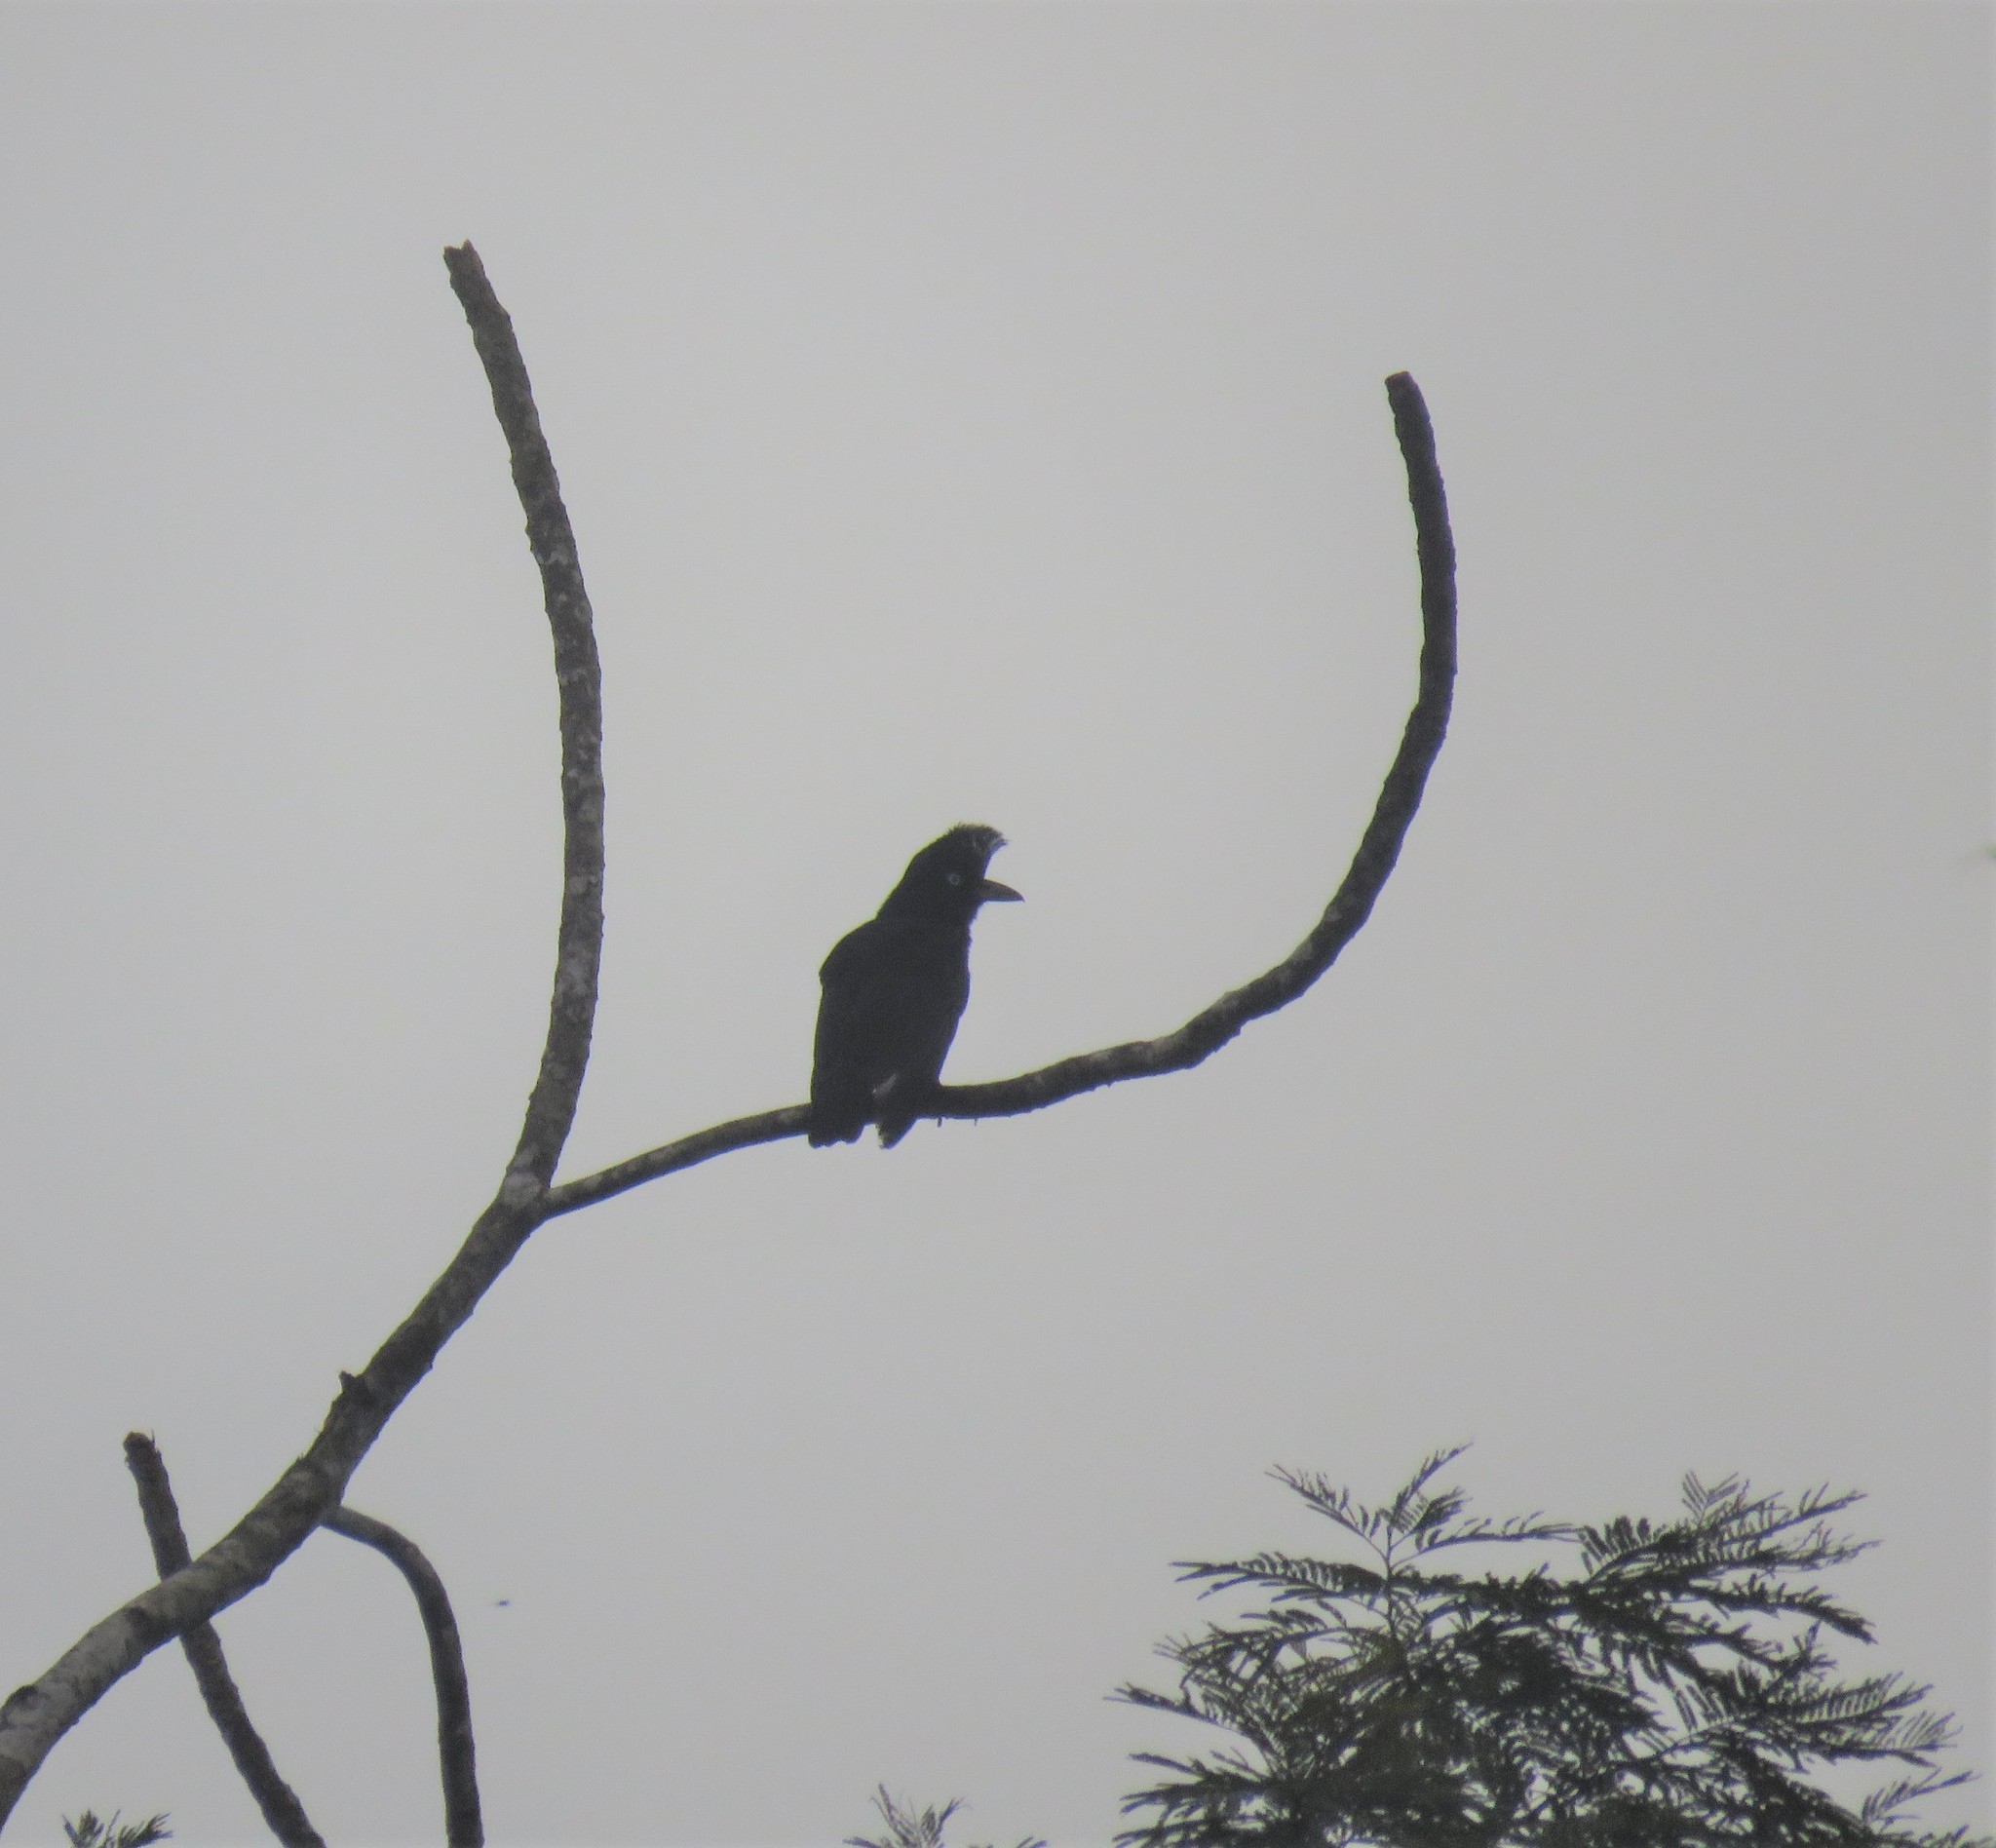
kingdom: Animalia
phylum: Chordata
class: Aves
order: Passeriformes
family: Cotingidae
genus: Cephalopterus
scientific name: Cephalopterus ornatus
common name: Amazonian umbrellabird
